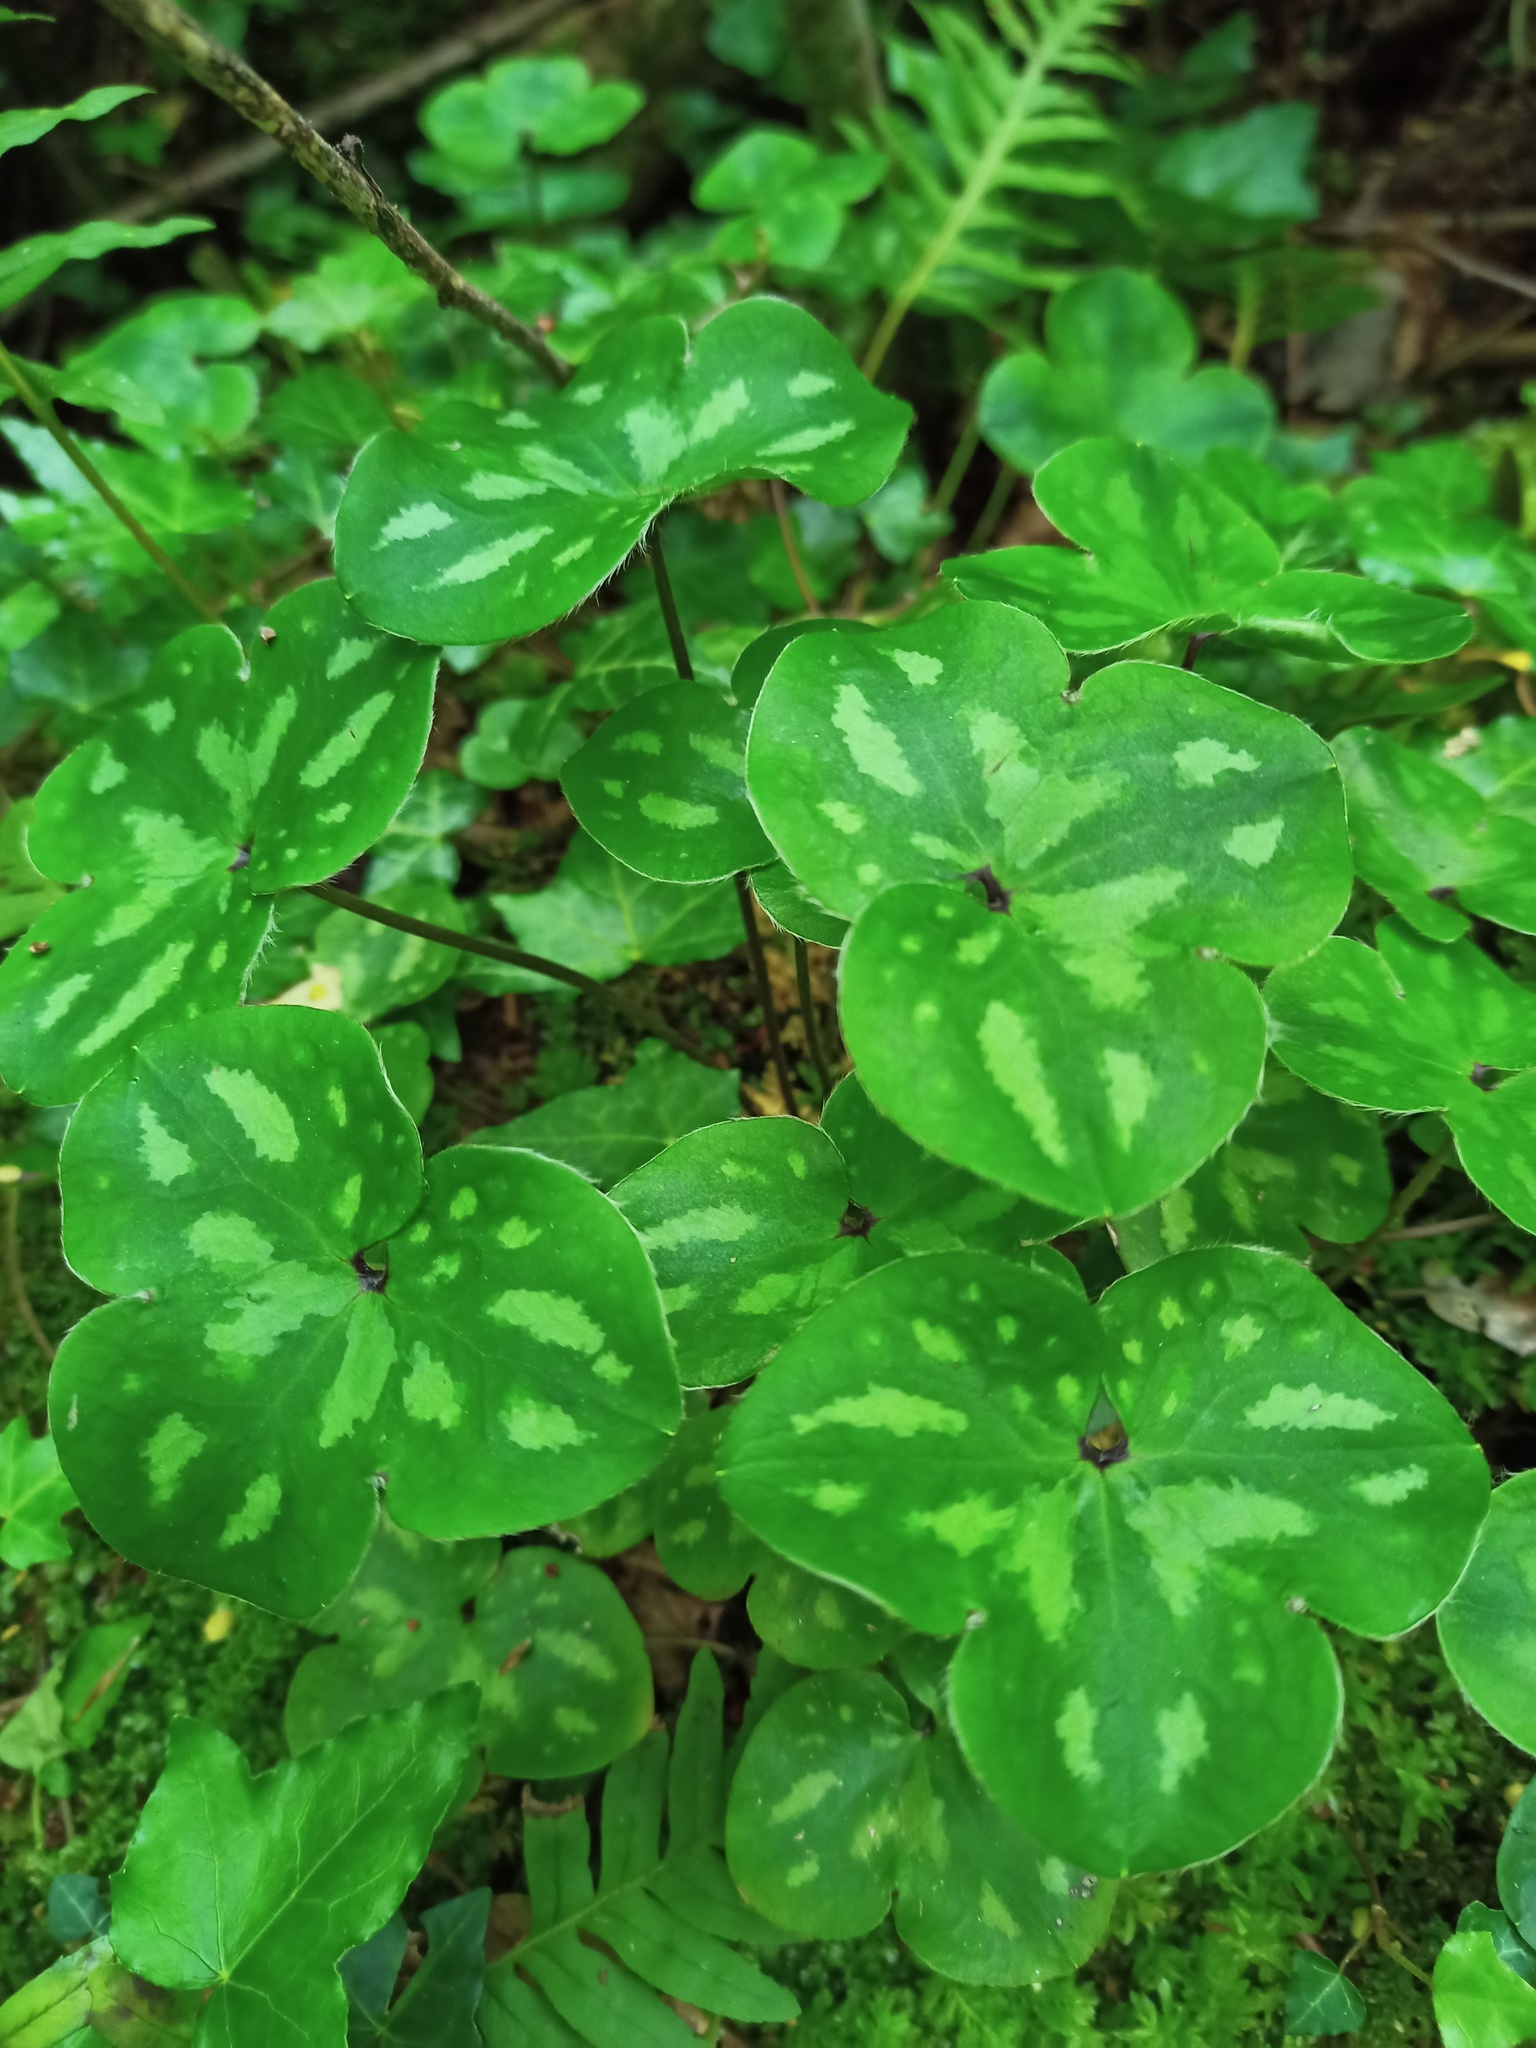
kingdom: Plantae
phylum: Tracheophyta
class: Magnoliopsida
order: Ranunculales
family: Ranunculaceae
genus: Hepatica
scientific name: Hepatica nobilis
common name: Liverleaf
